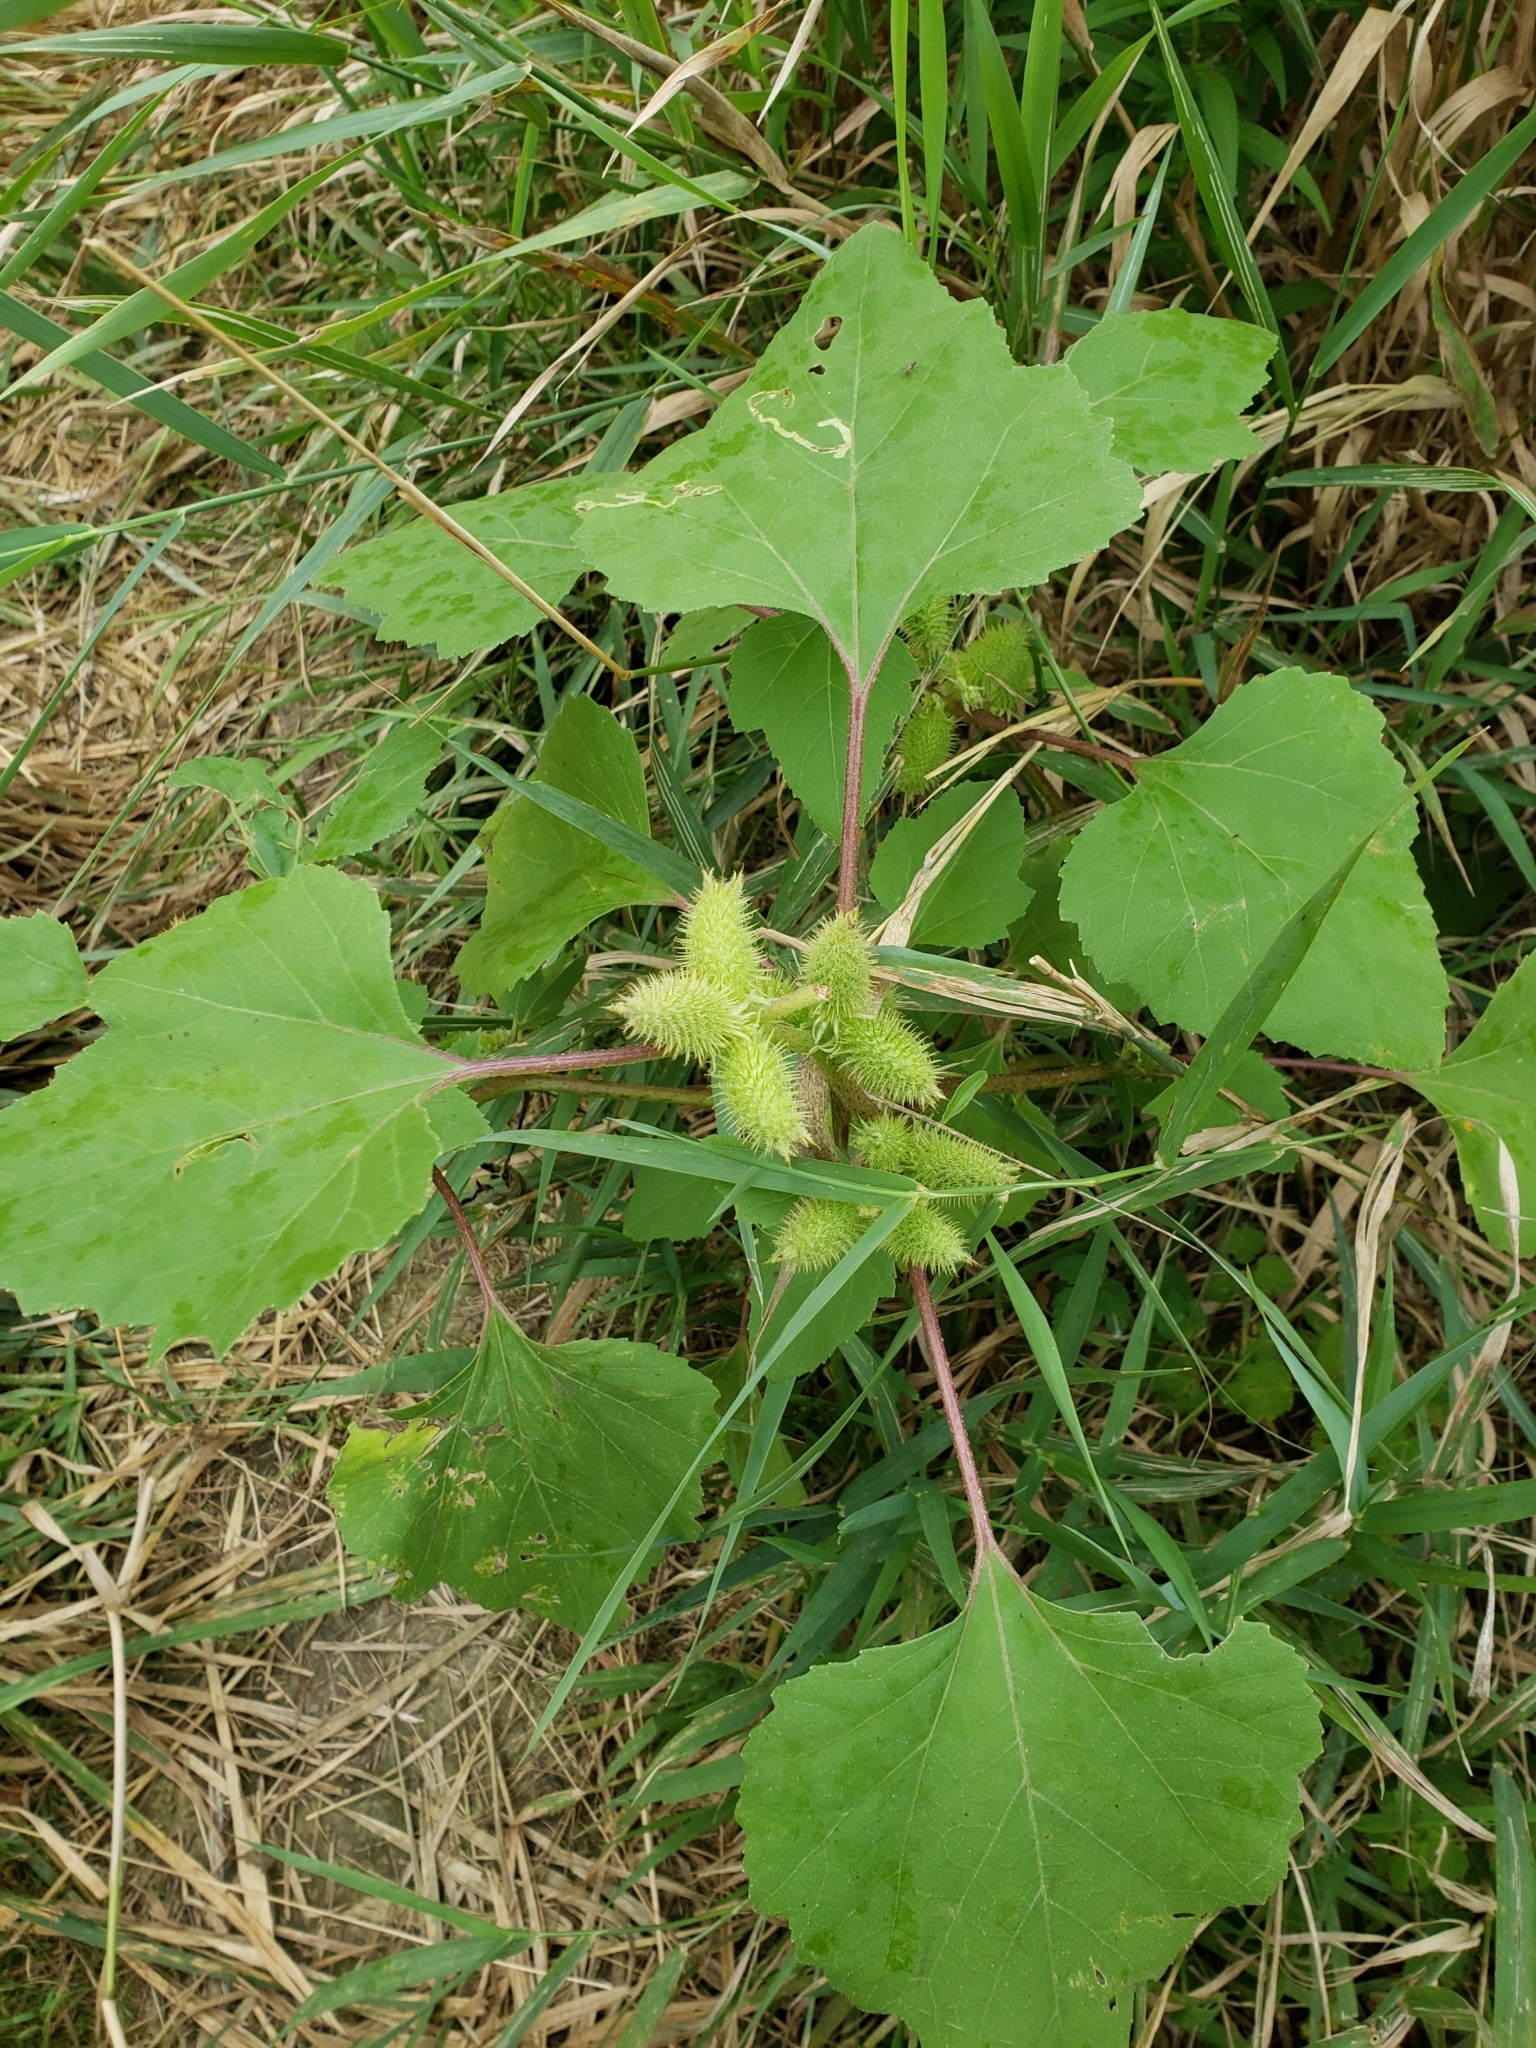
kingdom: Plantae
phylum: Tracheophyta
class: Magnoliopsida
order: Asterales
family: Asteraceae
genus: Xanthium
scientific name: Xanthium strumarium
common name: Rough cocklebur
